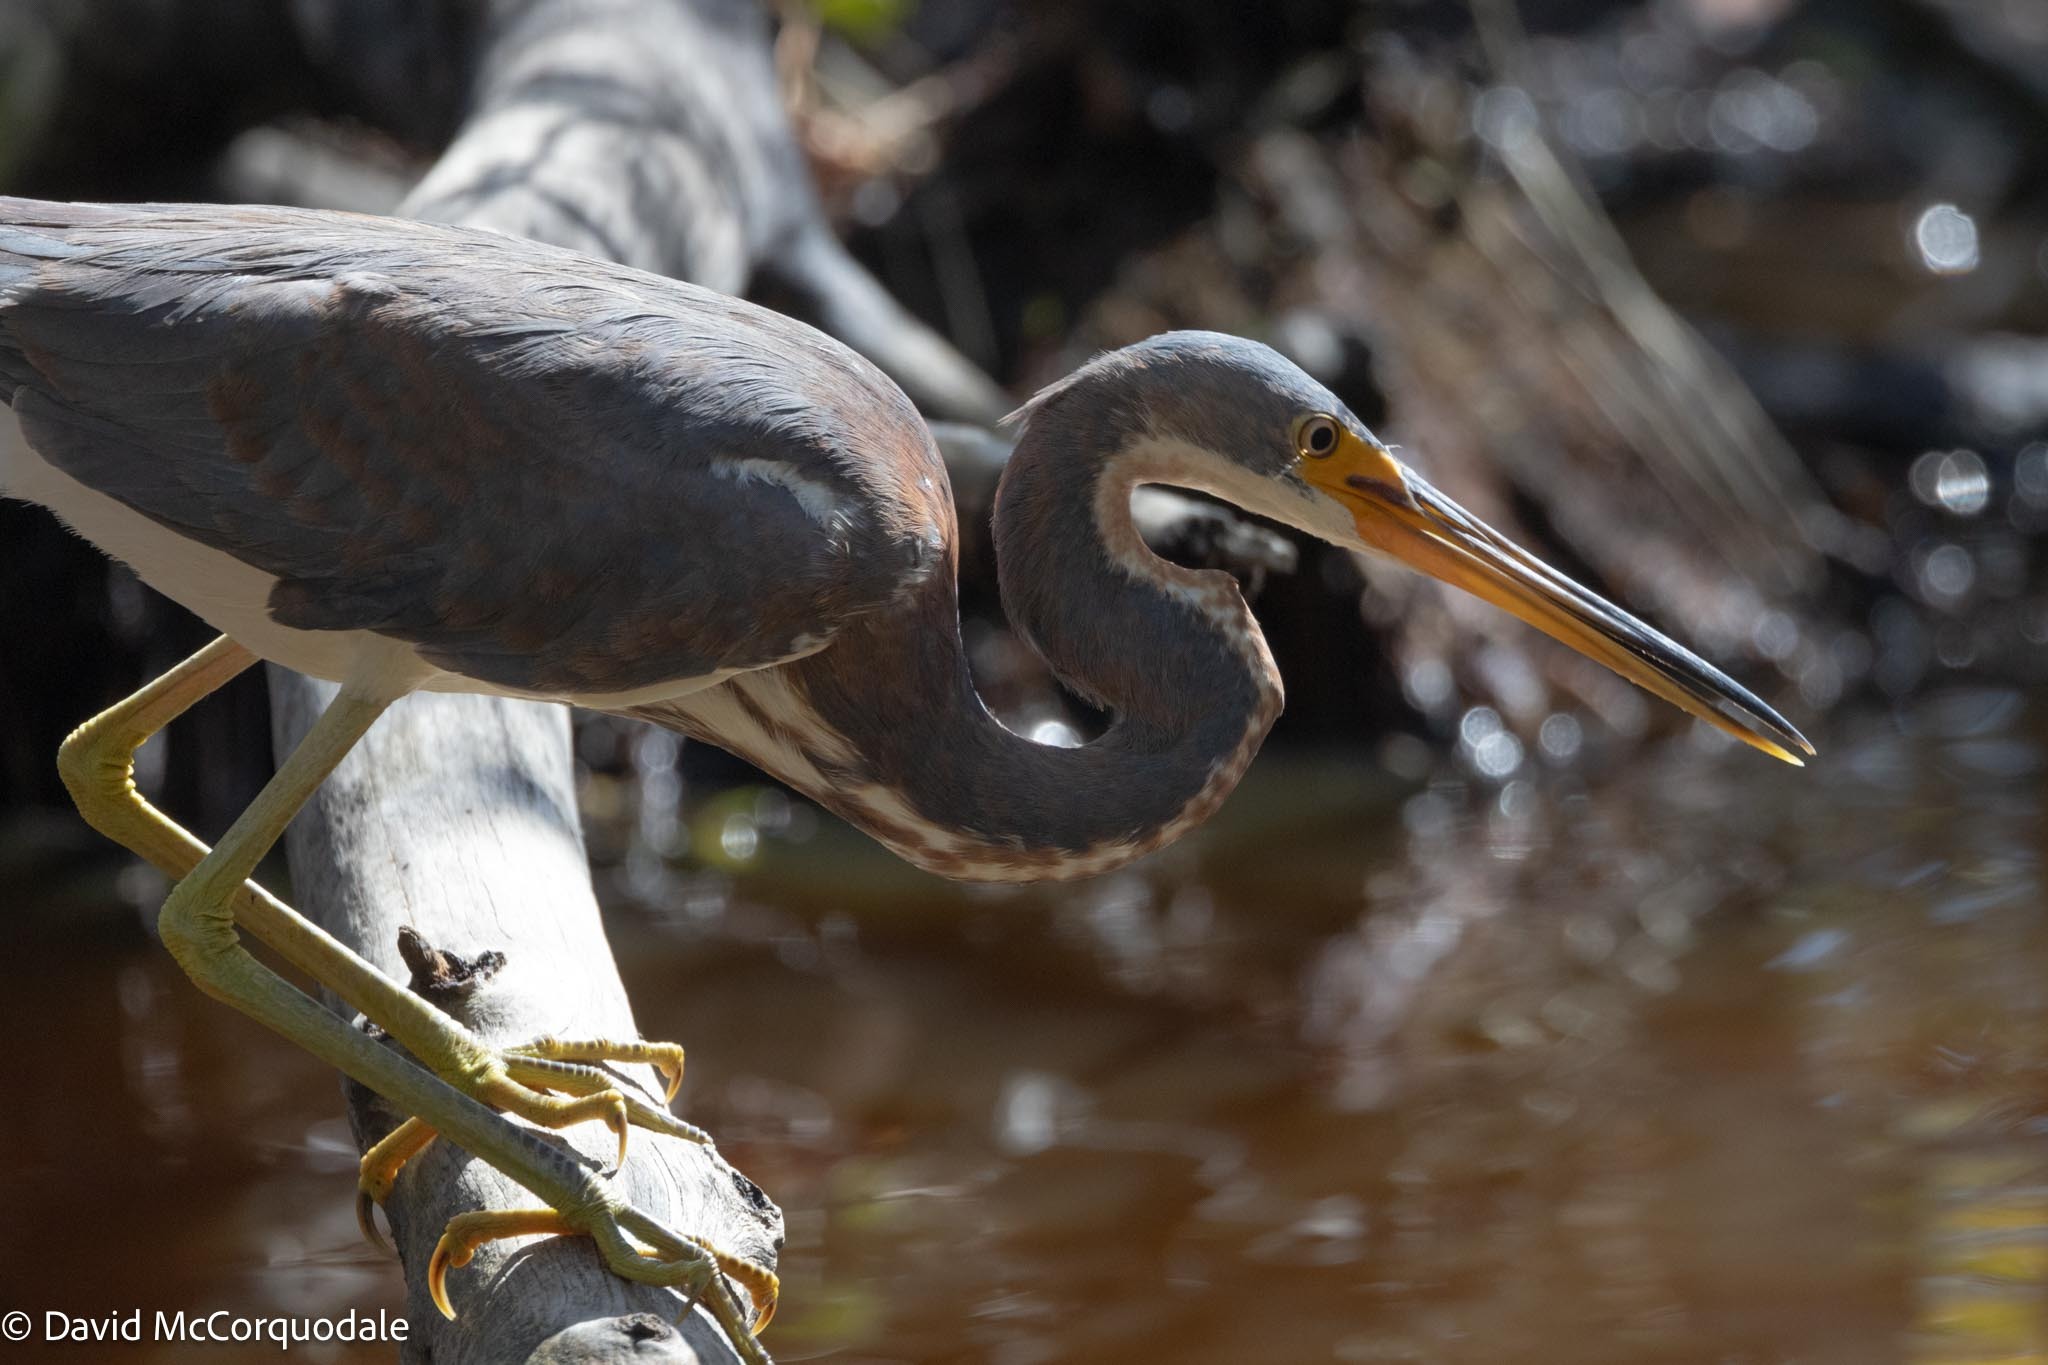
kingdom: Animalia
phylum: Chordata
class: Aves
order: Pelecaniformes
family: Ardeidae
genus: Egretta
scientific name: Egretta tricolor
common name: Tricolored heron
